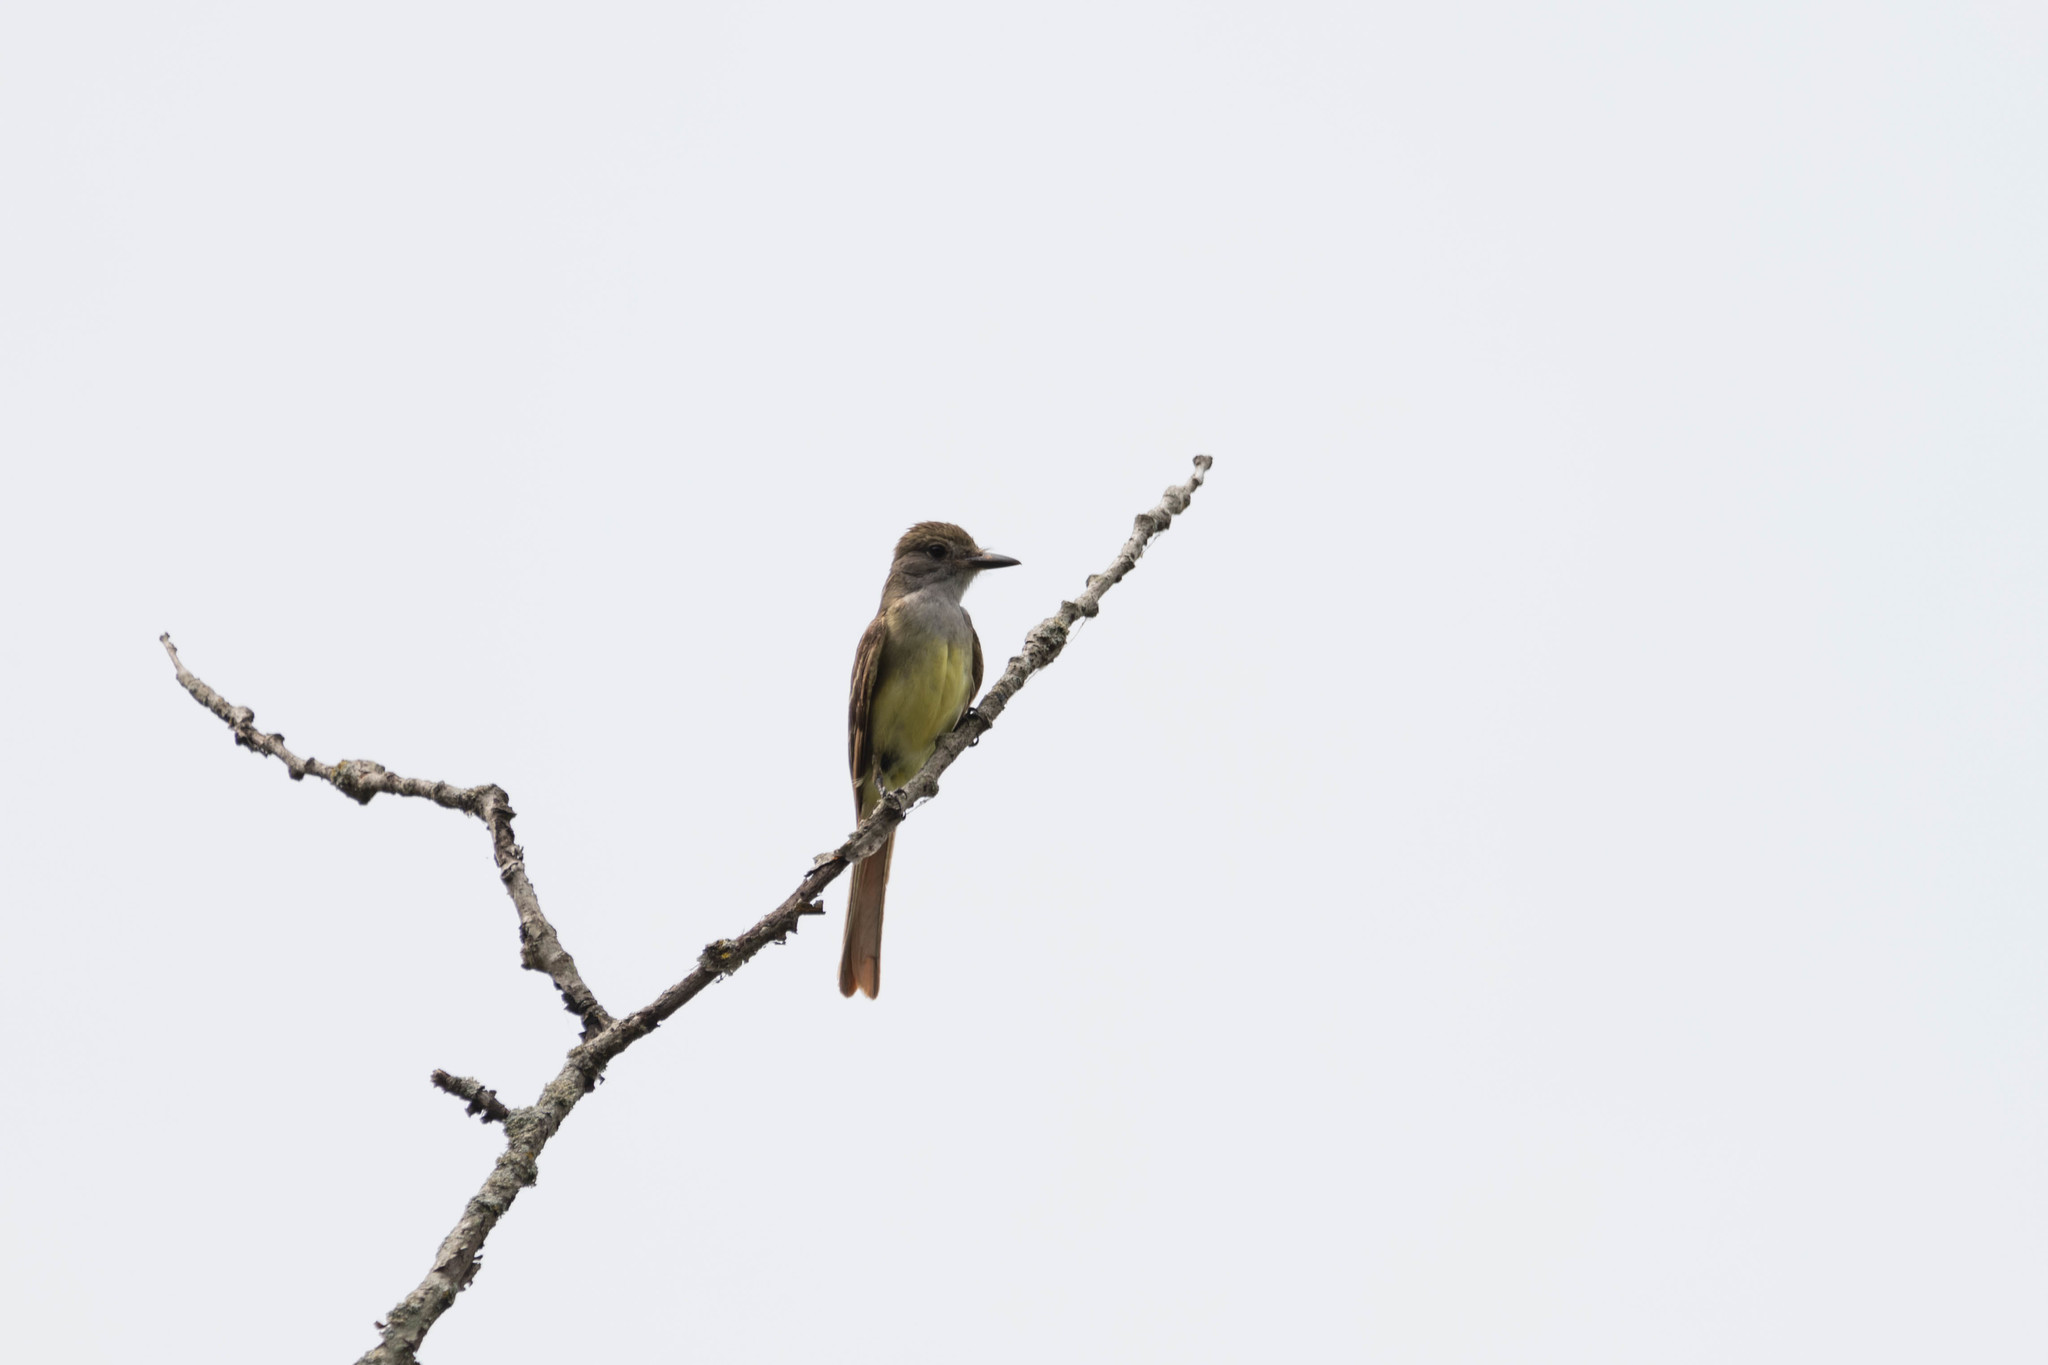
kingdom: Animalia
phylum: Chordata
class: Aves
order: Passeriformes
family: Tyrannidae
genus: Myiarchus
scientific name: Myiarchus crinitus
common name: Great crested flycatcher
